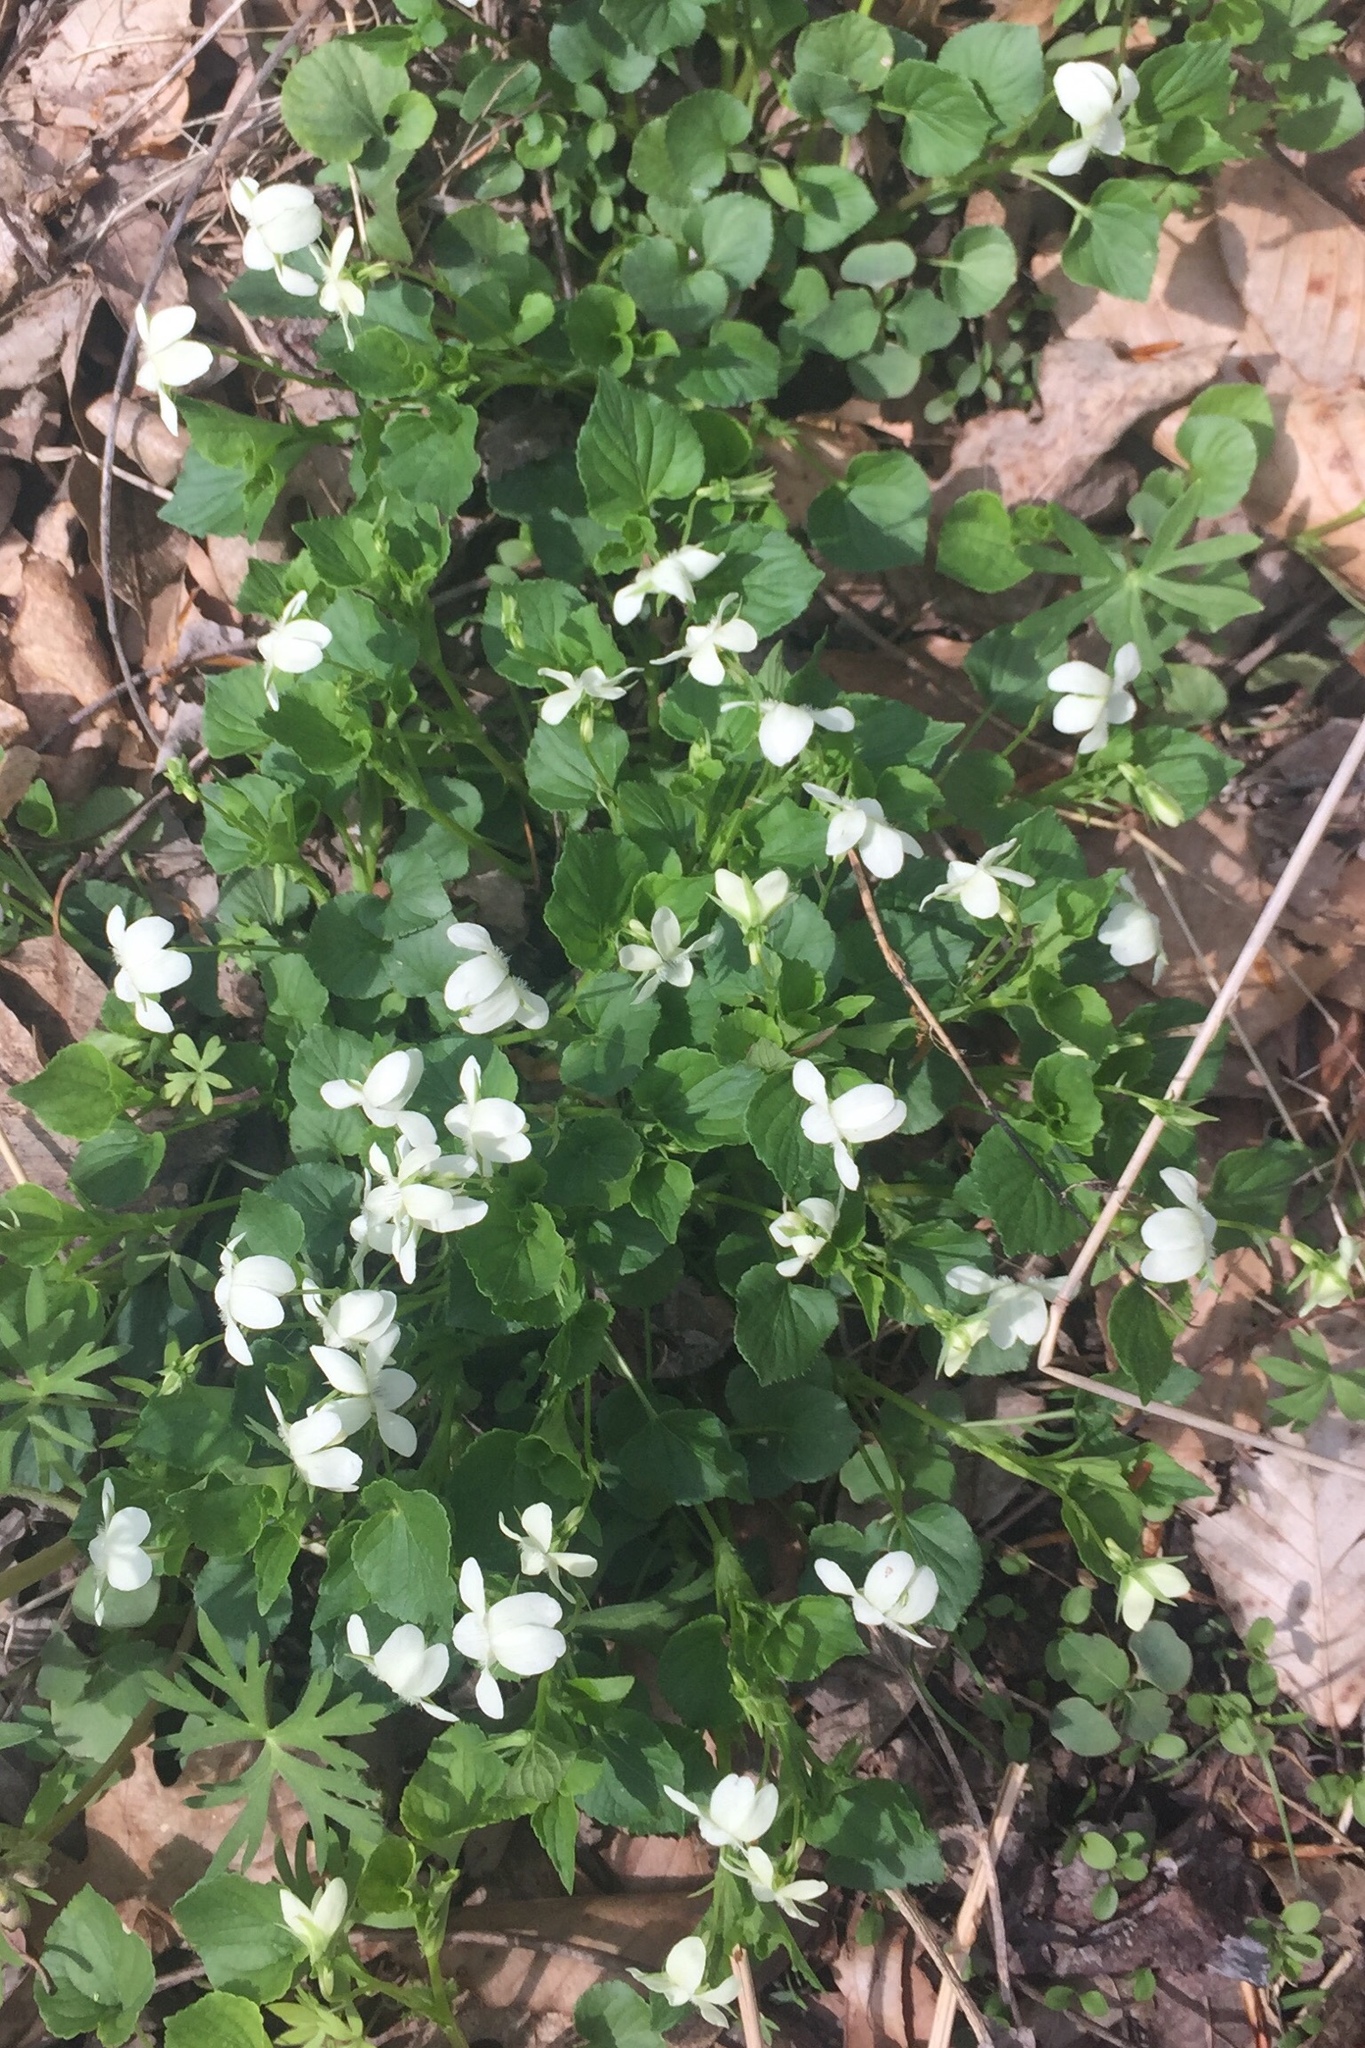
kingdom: Plantae
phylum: Tracheophyta
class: Magnoliopsida
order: Malpighiales
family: Violaceae
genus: Viola
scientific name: Viola striata
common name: Cream violet
